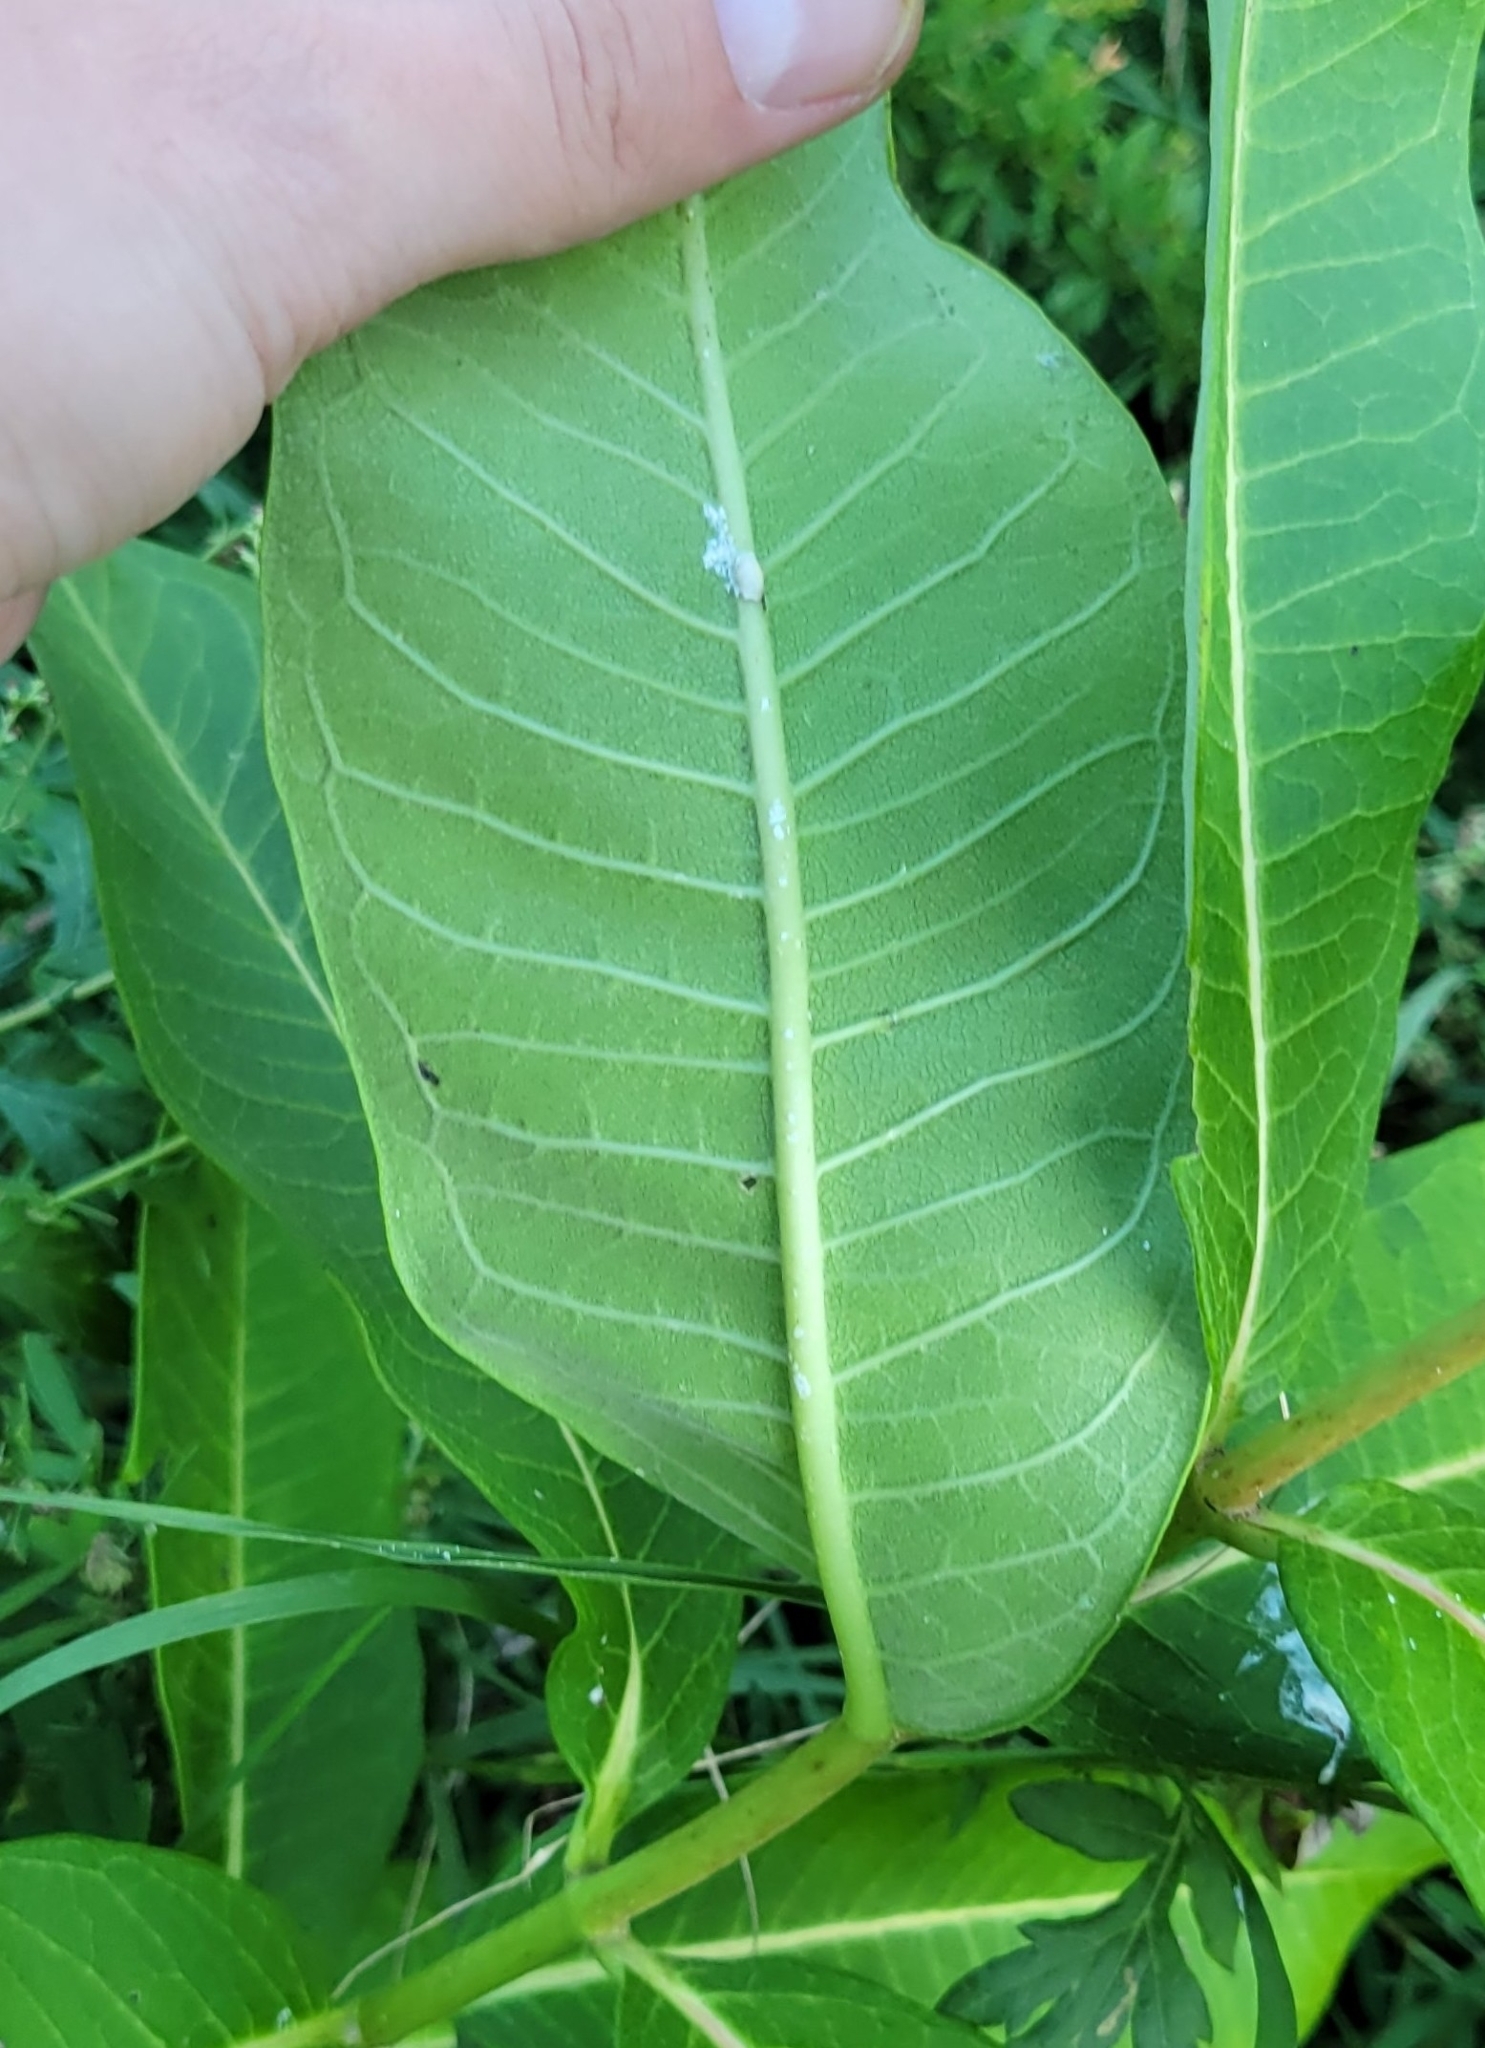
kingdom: Plantae
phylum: Tracheophyta
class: Magnoliopsida
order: Gentianales
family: Apocynaceae
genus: Asclepias
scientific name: Asclepias syriaca
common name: Common milkweed
